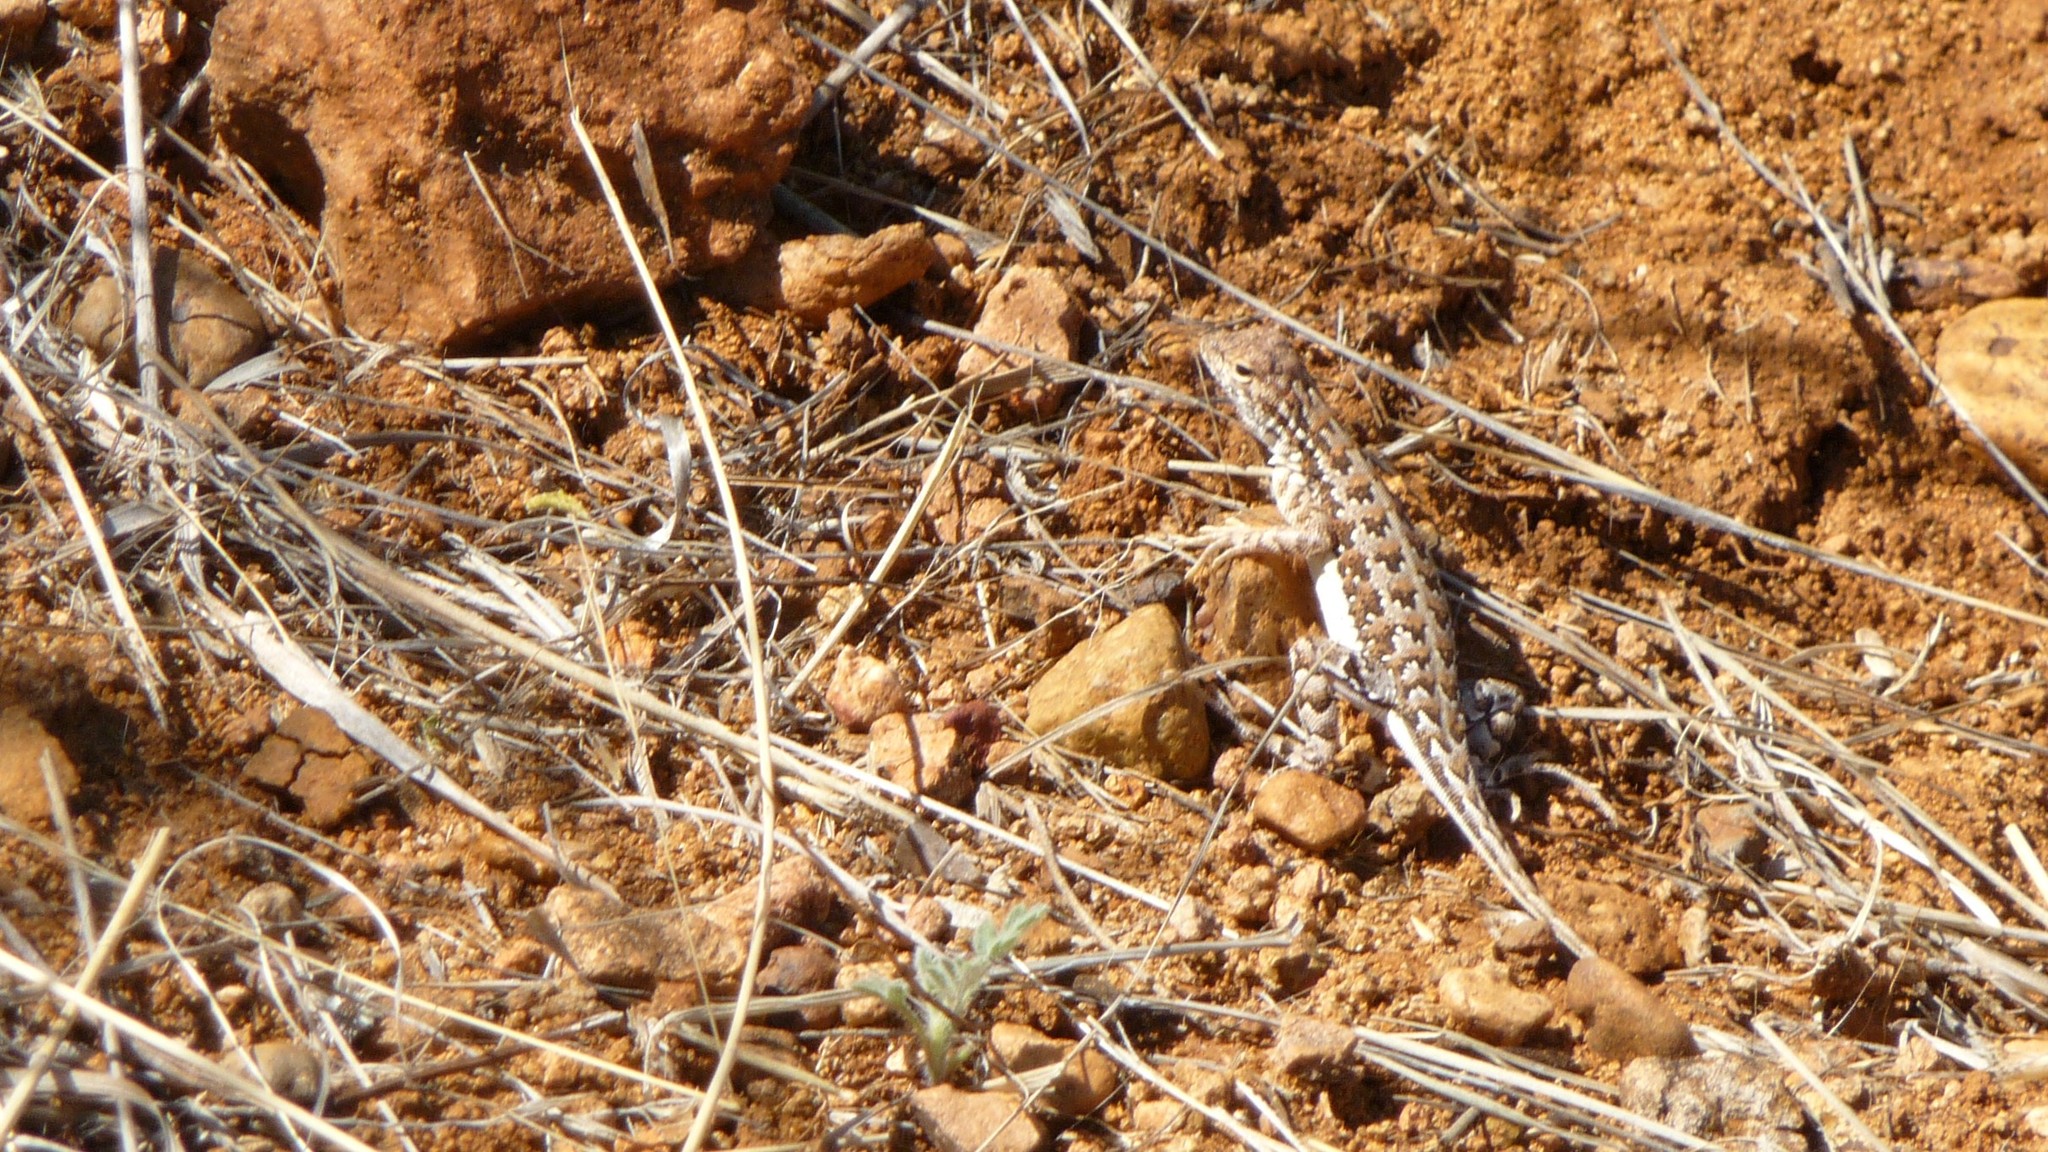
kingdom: Animalia
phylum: Chordata
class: Squamata
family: Phrynosomatidae
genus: Holbrookia
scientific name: Holbrookia elegans
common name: Elegant earless lizard
